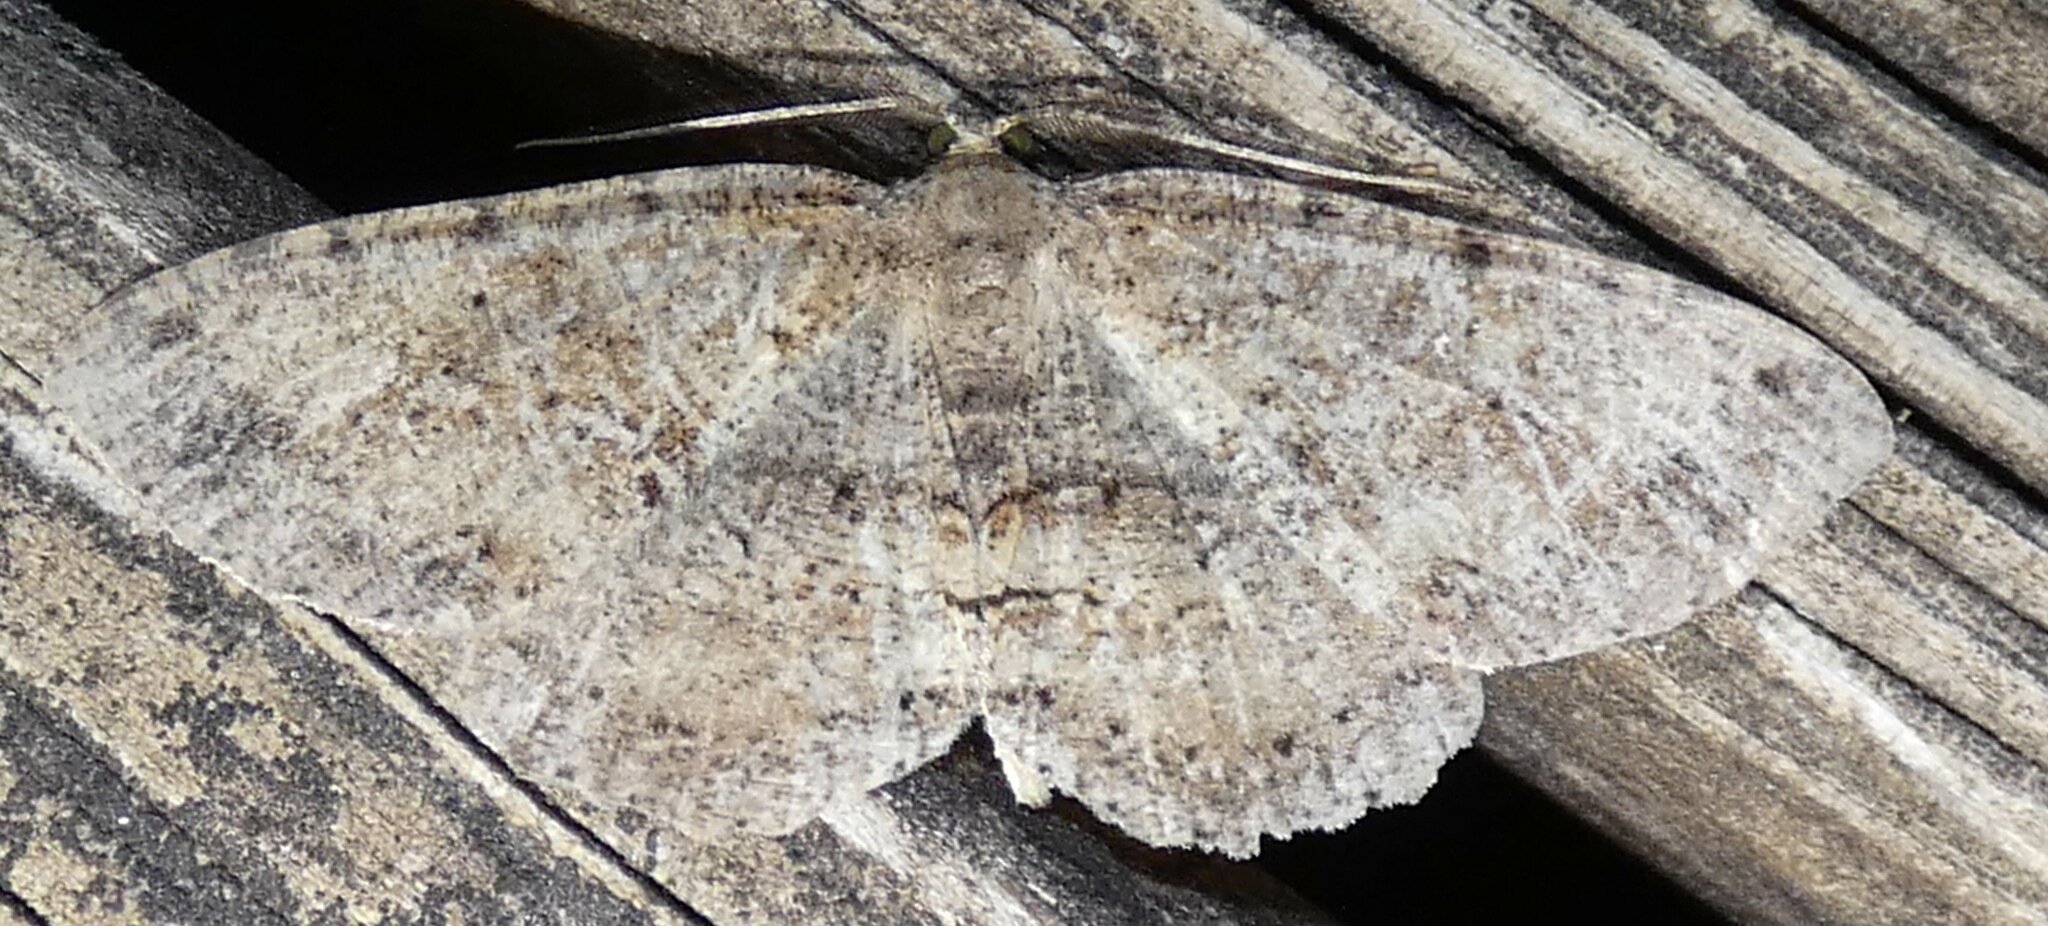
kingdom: Animalia
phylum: Arthropoda
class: Insecta
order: Lepidoptera
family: Geometridae
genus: Melanolophia
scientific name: Melanolophia canadaria
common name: Canadian melanolophia
